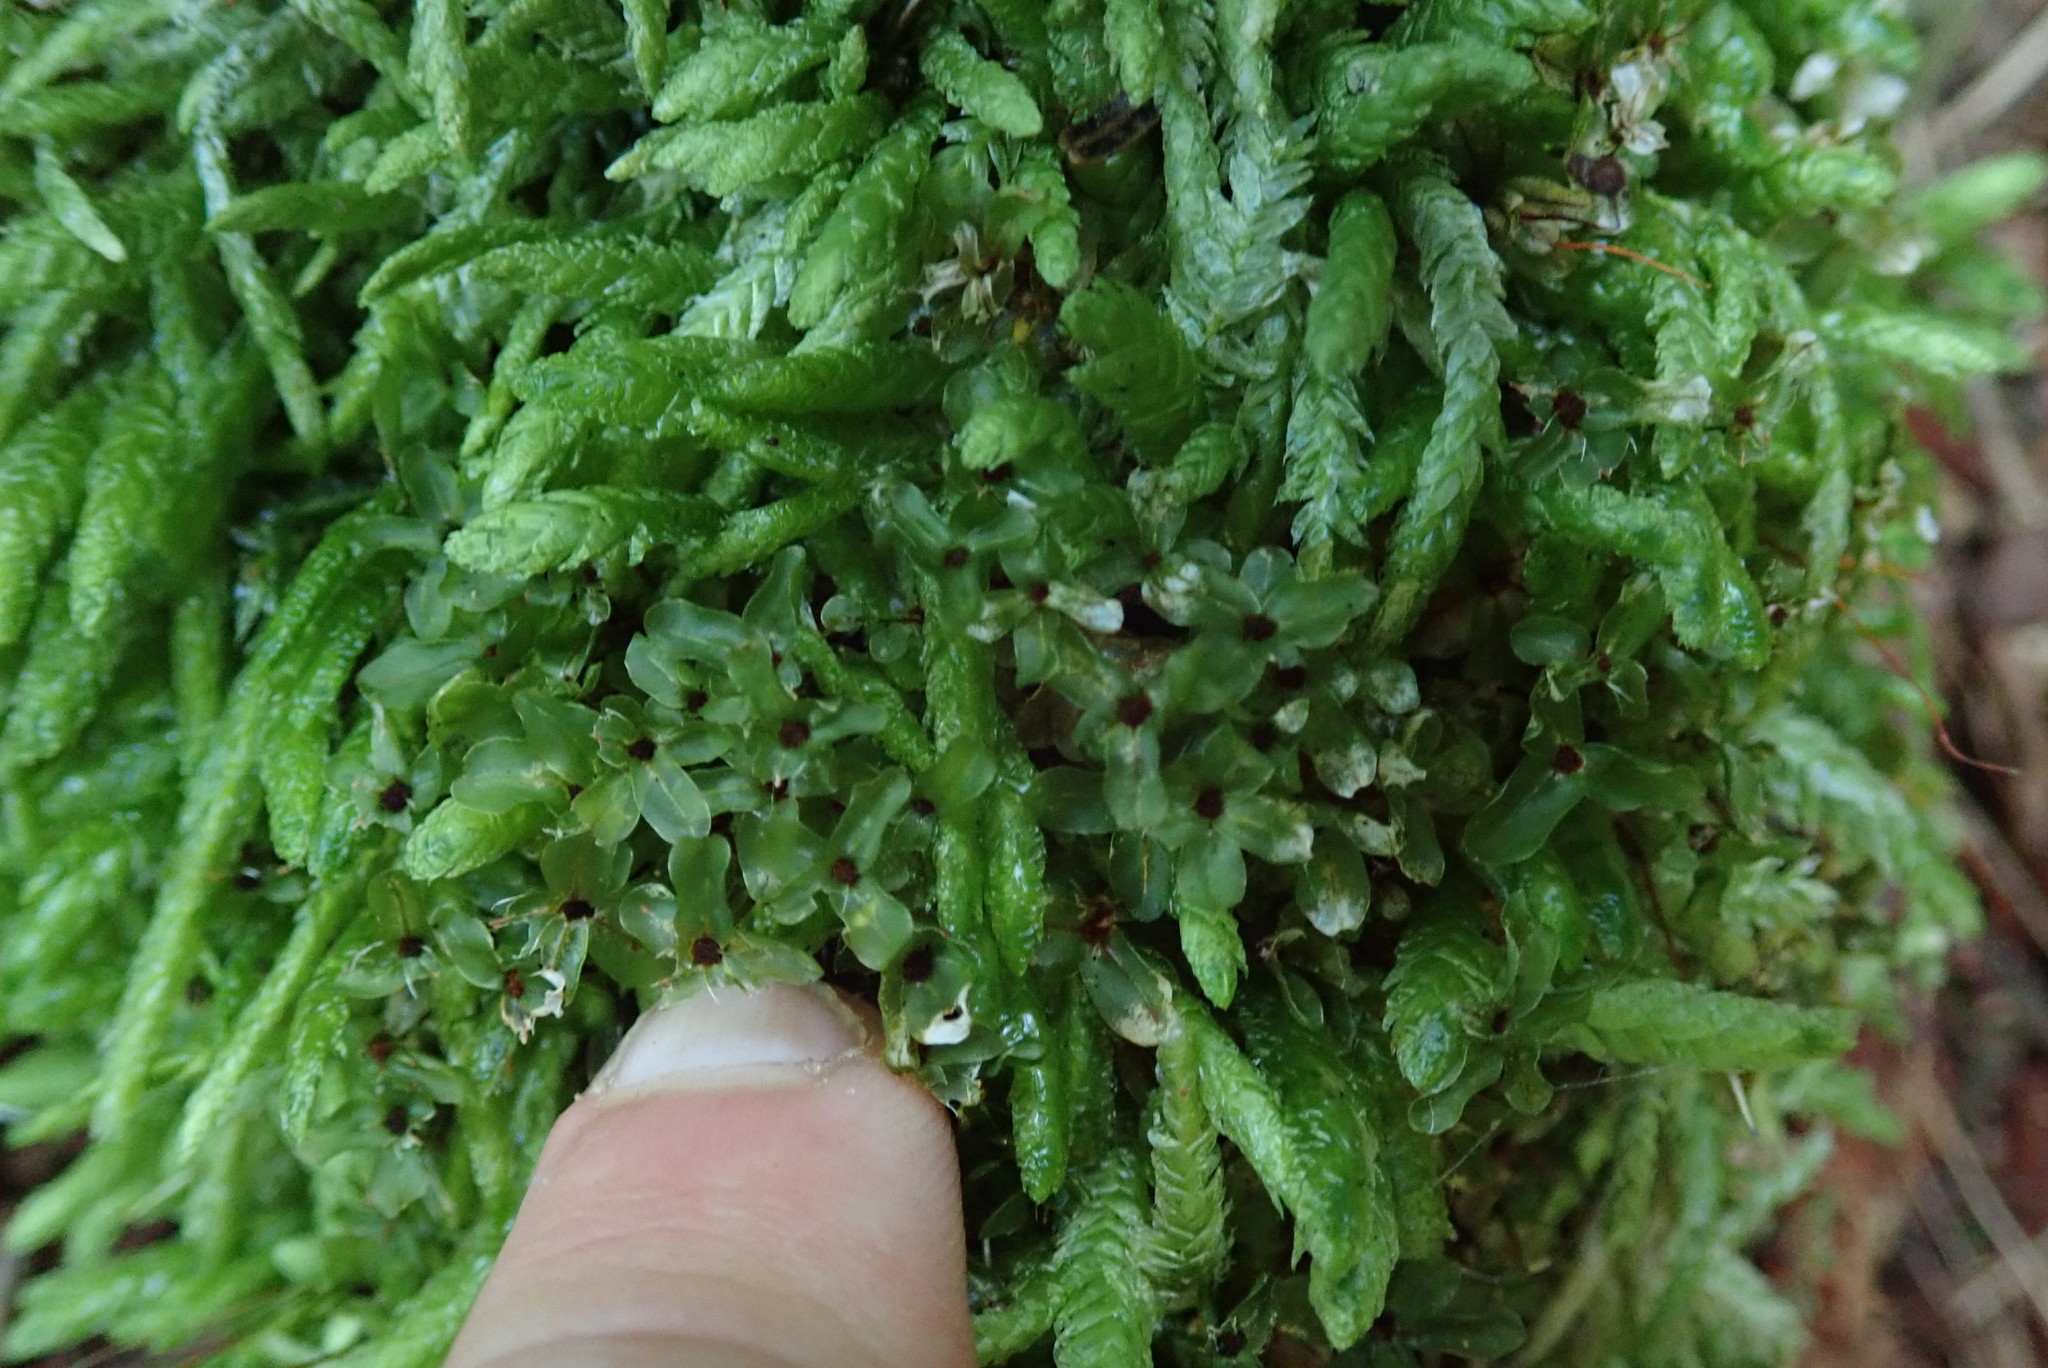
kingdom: Plantae
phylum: Bryophyta
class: Bryopsida
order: Hypnales
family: Plagiotheciaceae
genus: Plagiothecium
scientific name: Plagiothecium undulatum
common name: Waved silk-moss
